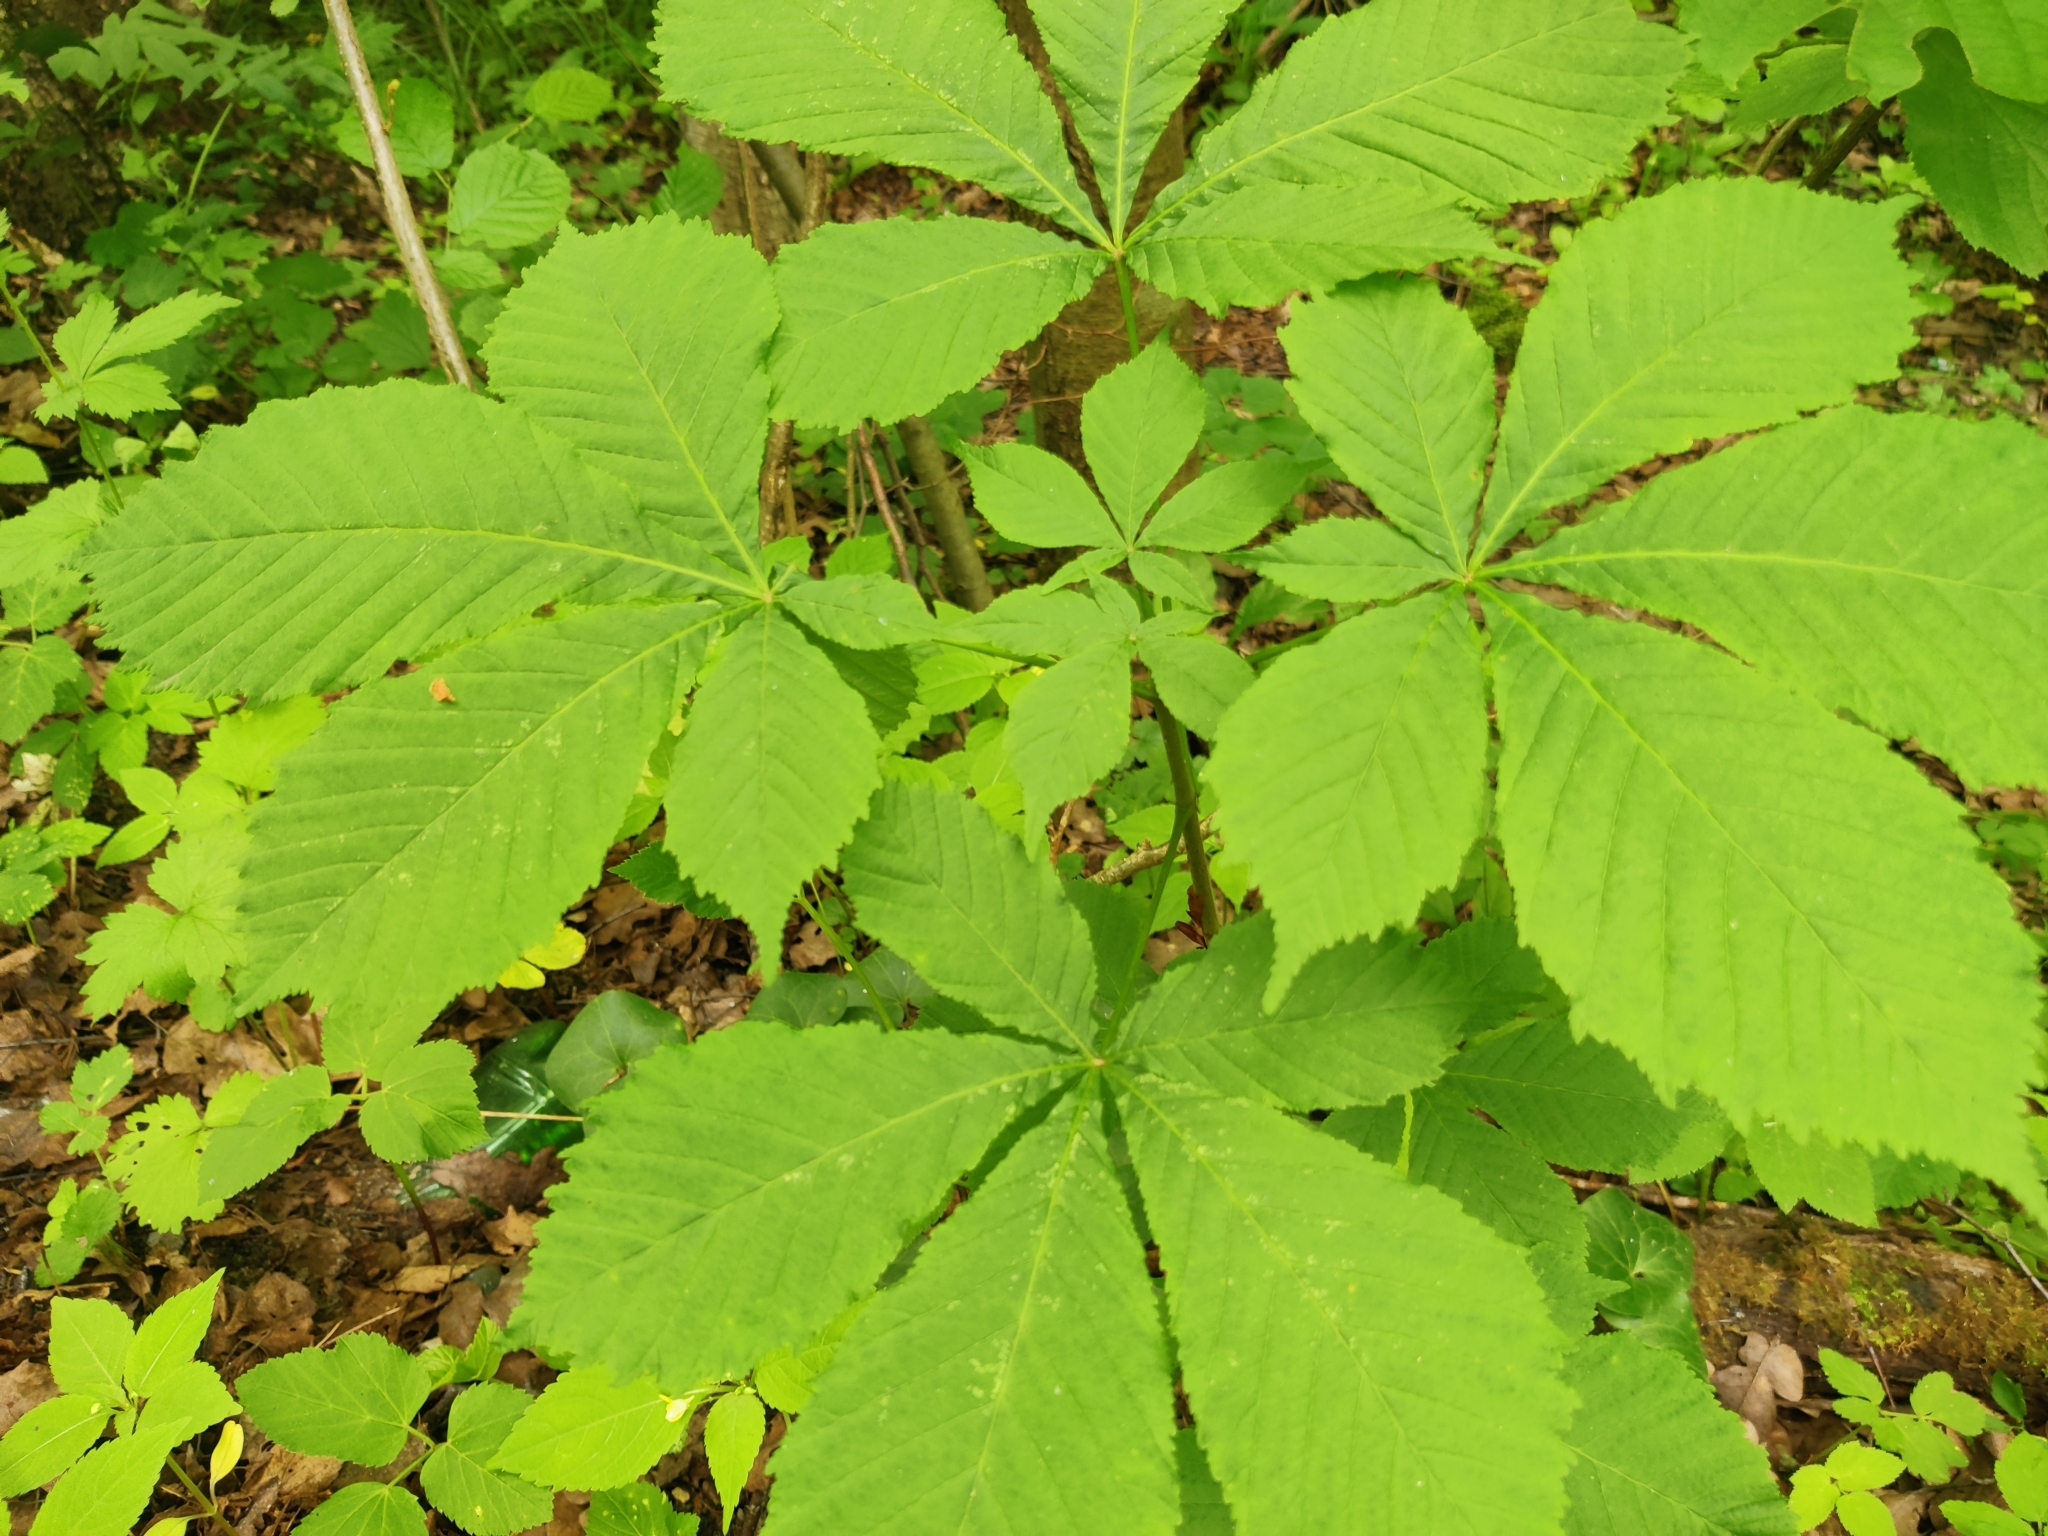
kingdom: Plantae
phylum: Tracheophyta
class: Magnoliopsida
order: Sapindales
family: Sapindaceae
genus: Aesculus
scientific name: Aesculus hippocastanum
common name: Horse-chestnut
